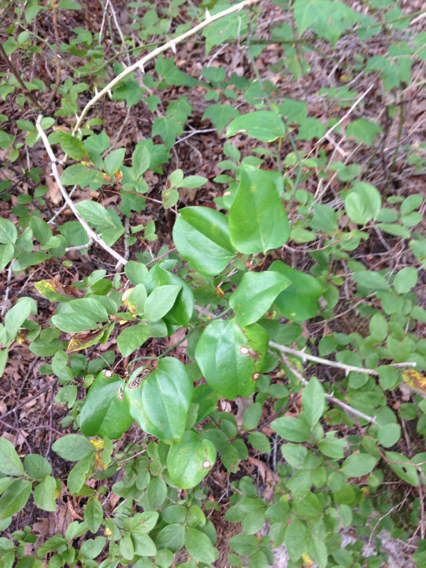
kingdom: Plantae
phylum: Tracheophyta
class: Liliopsida
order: Liliales
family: Smilacaceae
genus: Smilax
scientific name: Smilax rotundifolia
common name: Bullbriar
